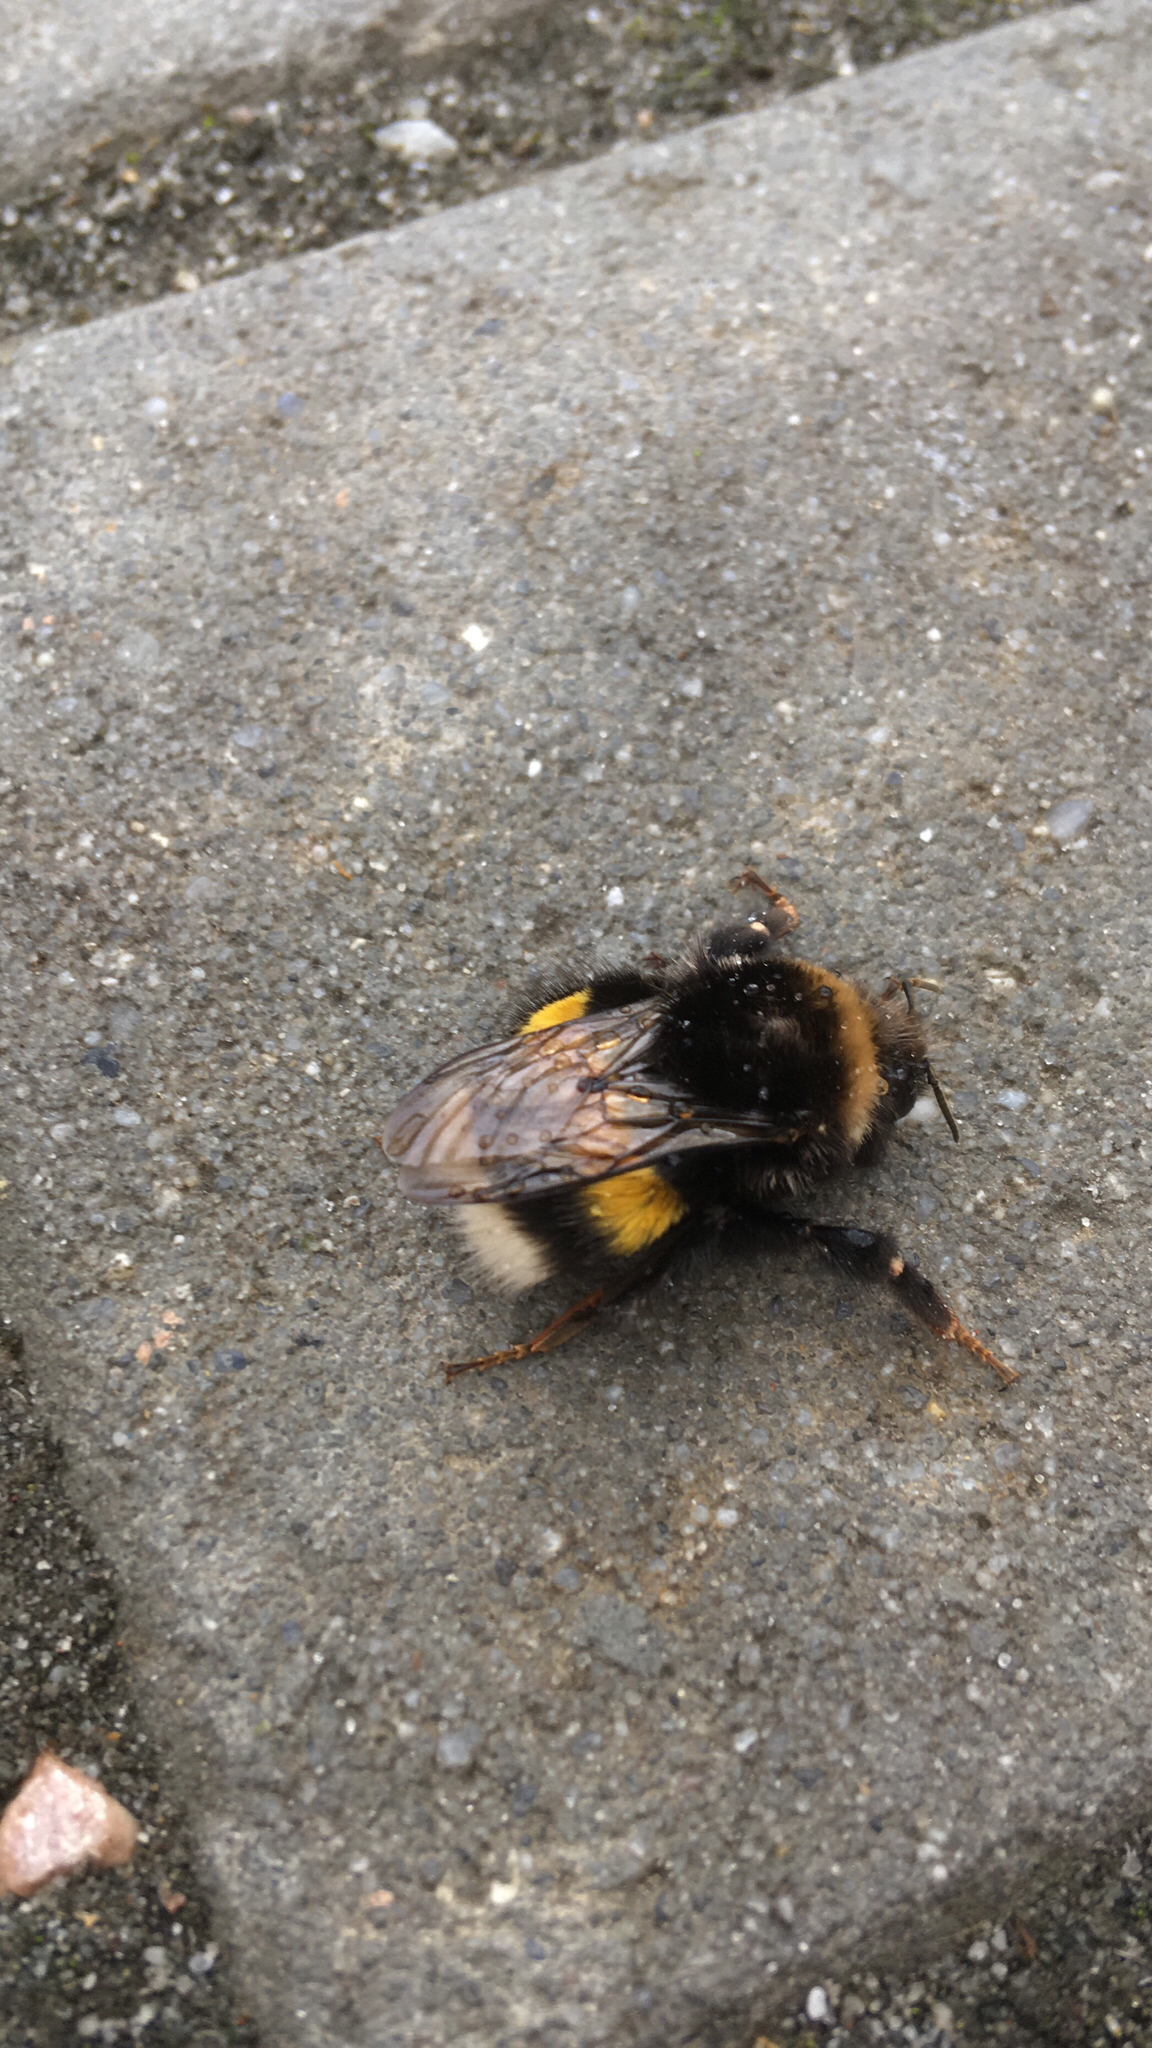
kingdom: Animalia
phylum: Arthropoda
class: Insecta
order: Hymenoptera
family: Apidae
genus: Bombus
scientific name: Bombus terrestris
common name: Buff-tailed bumblebee
